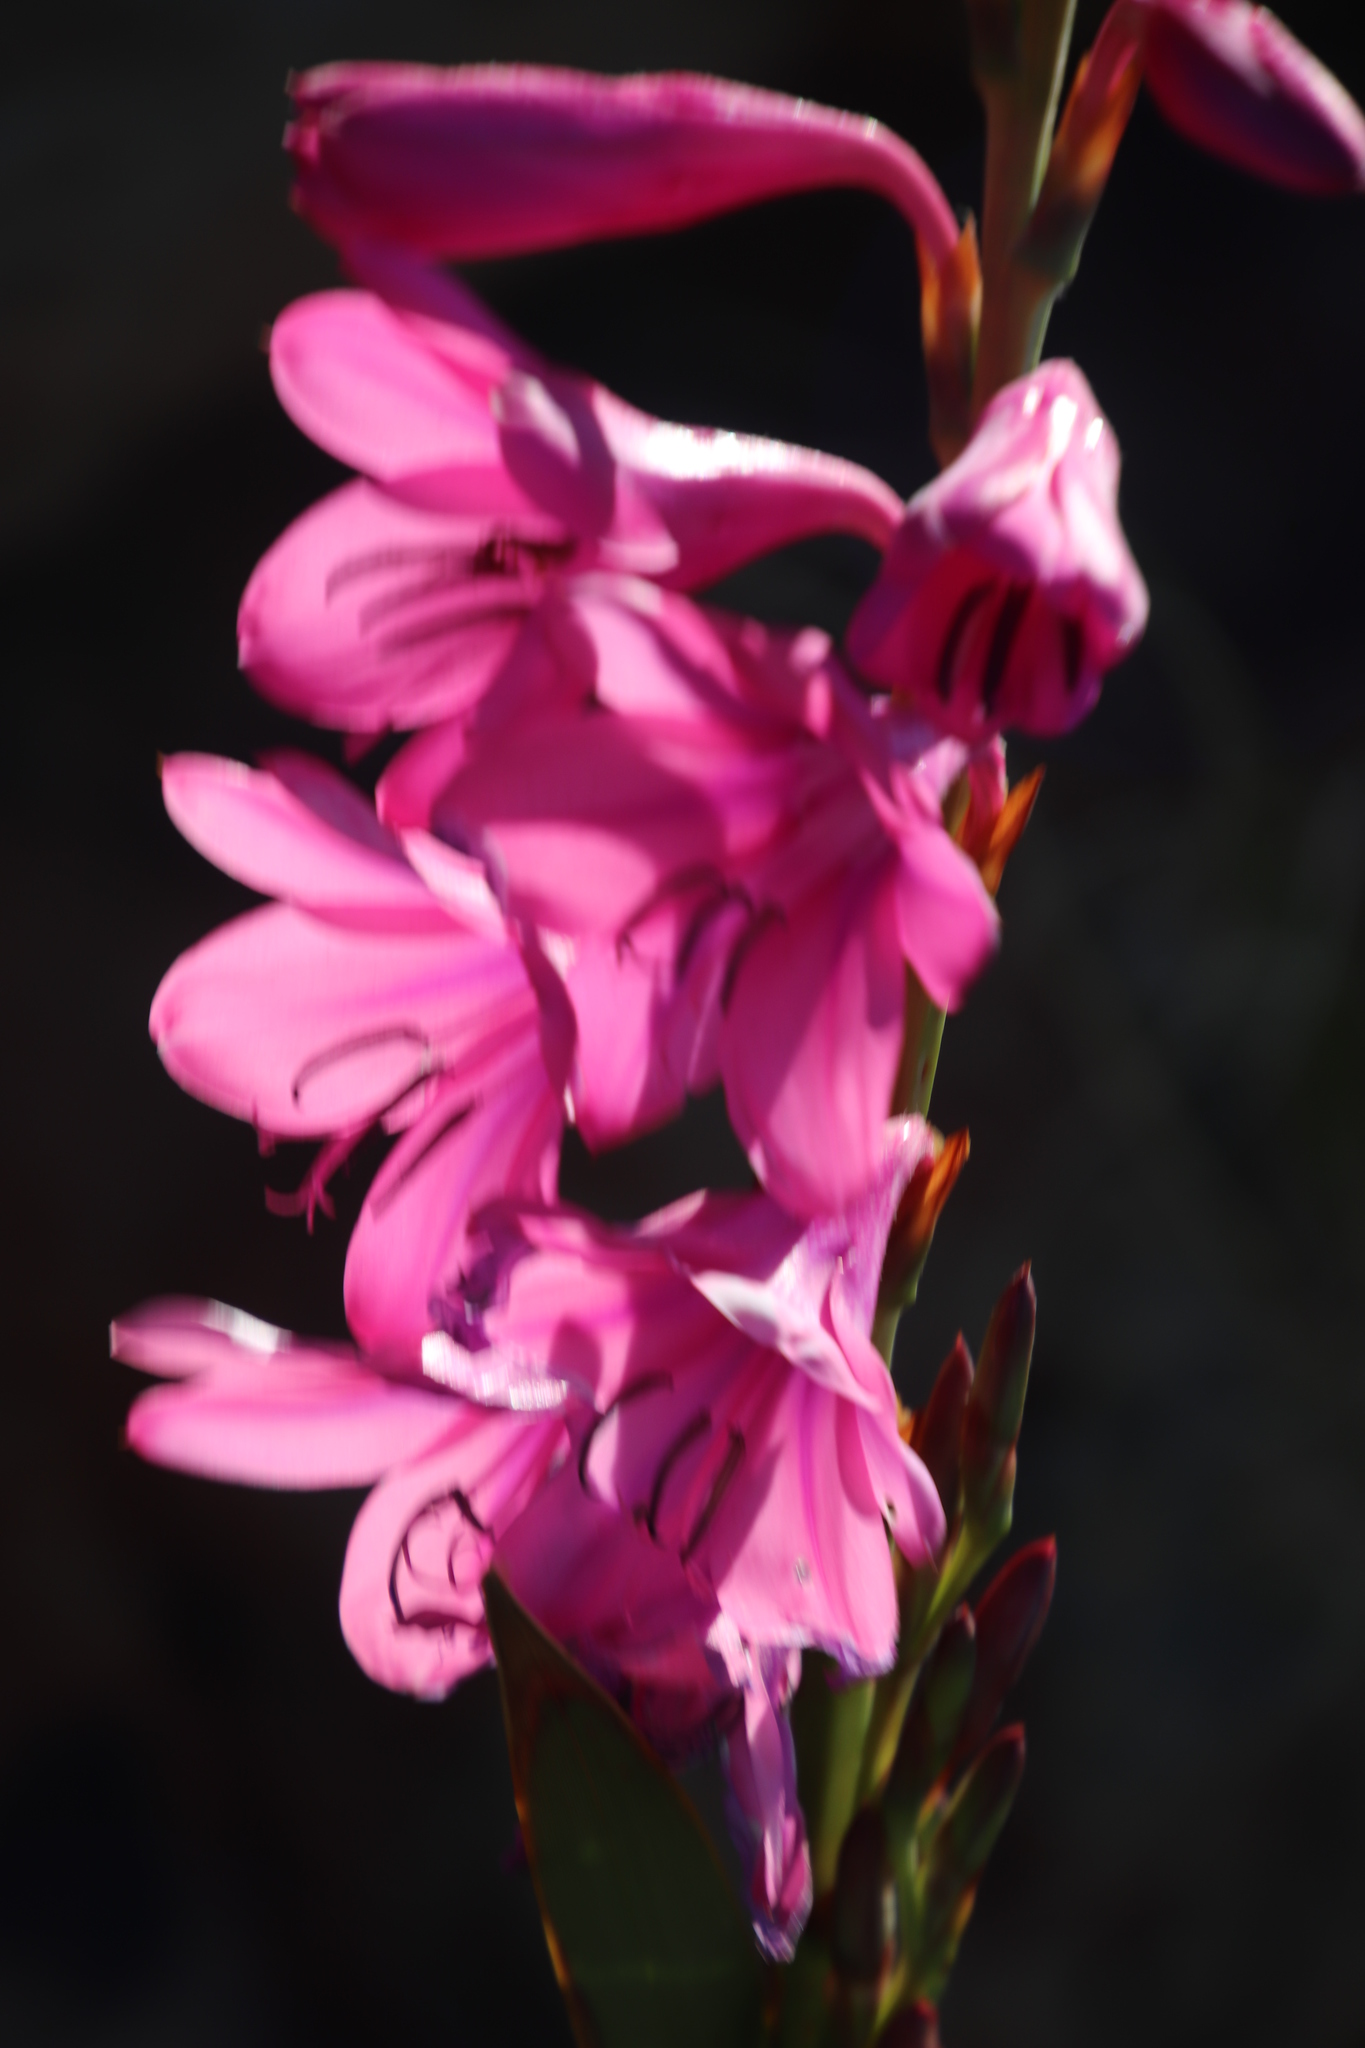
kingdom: Plantae
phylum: Tracheophyta
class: Liliopsida
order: Asparagales
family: Iridaceae
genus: Watsonia
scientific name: Watsonia borbonica
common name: Bugle-lily
